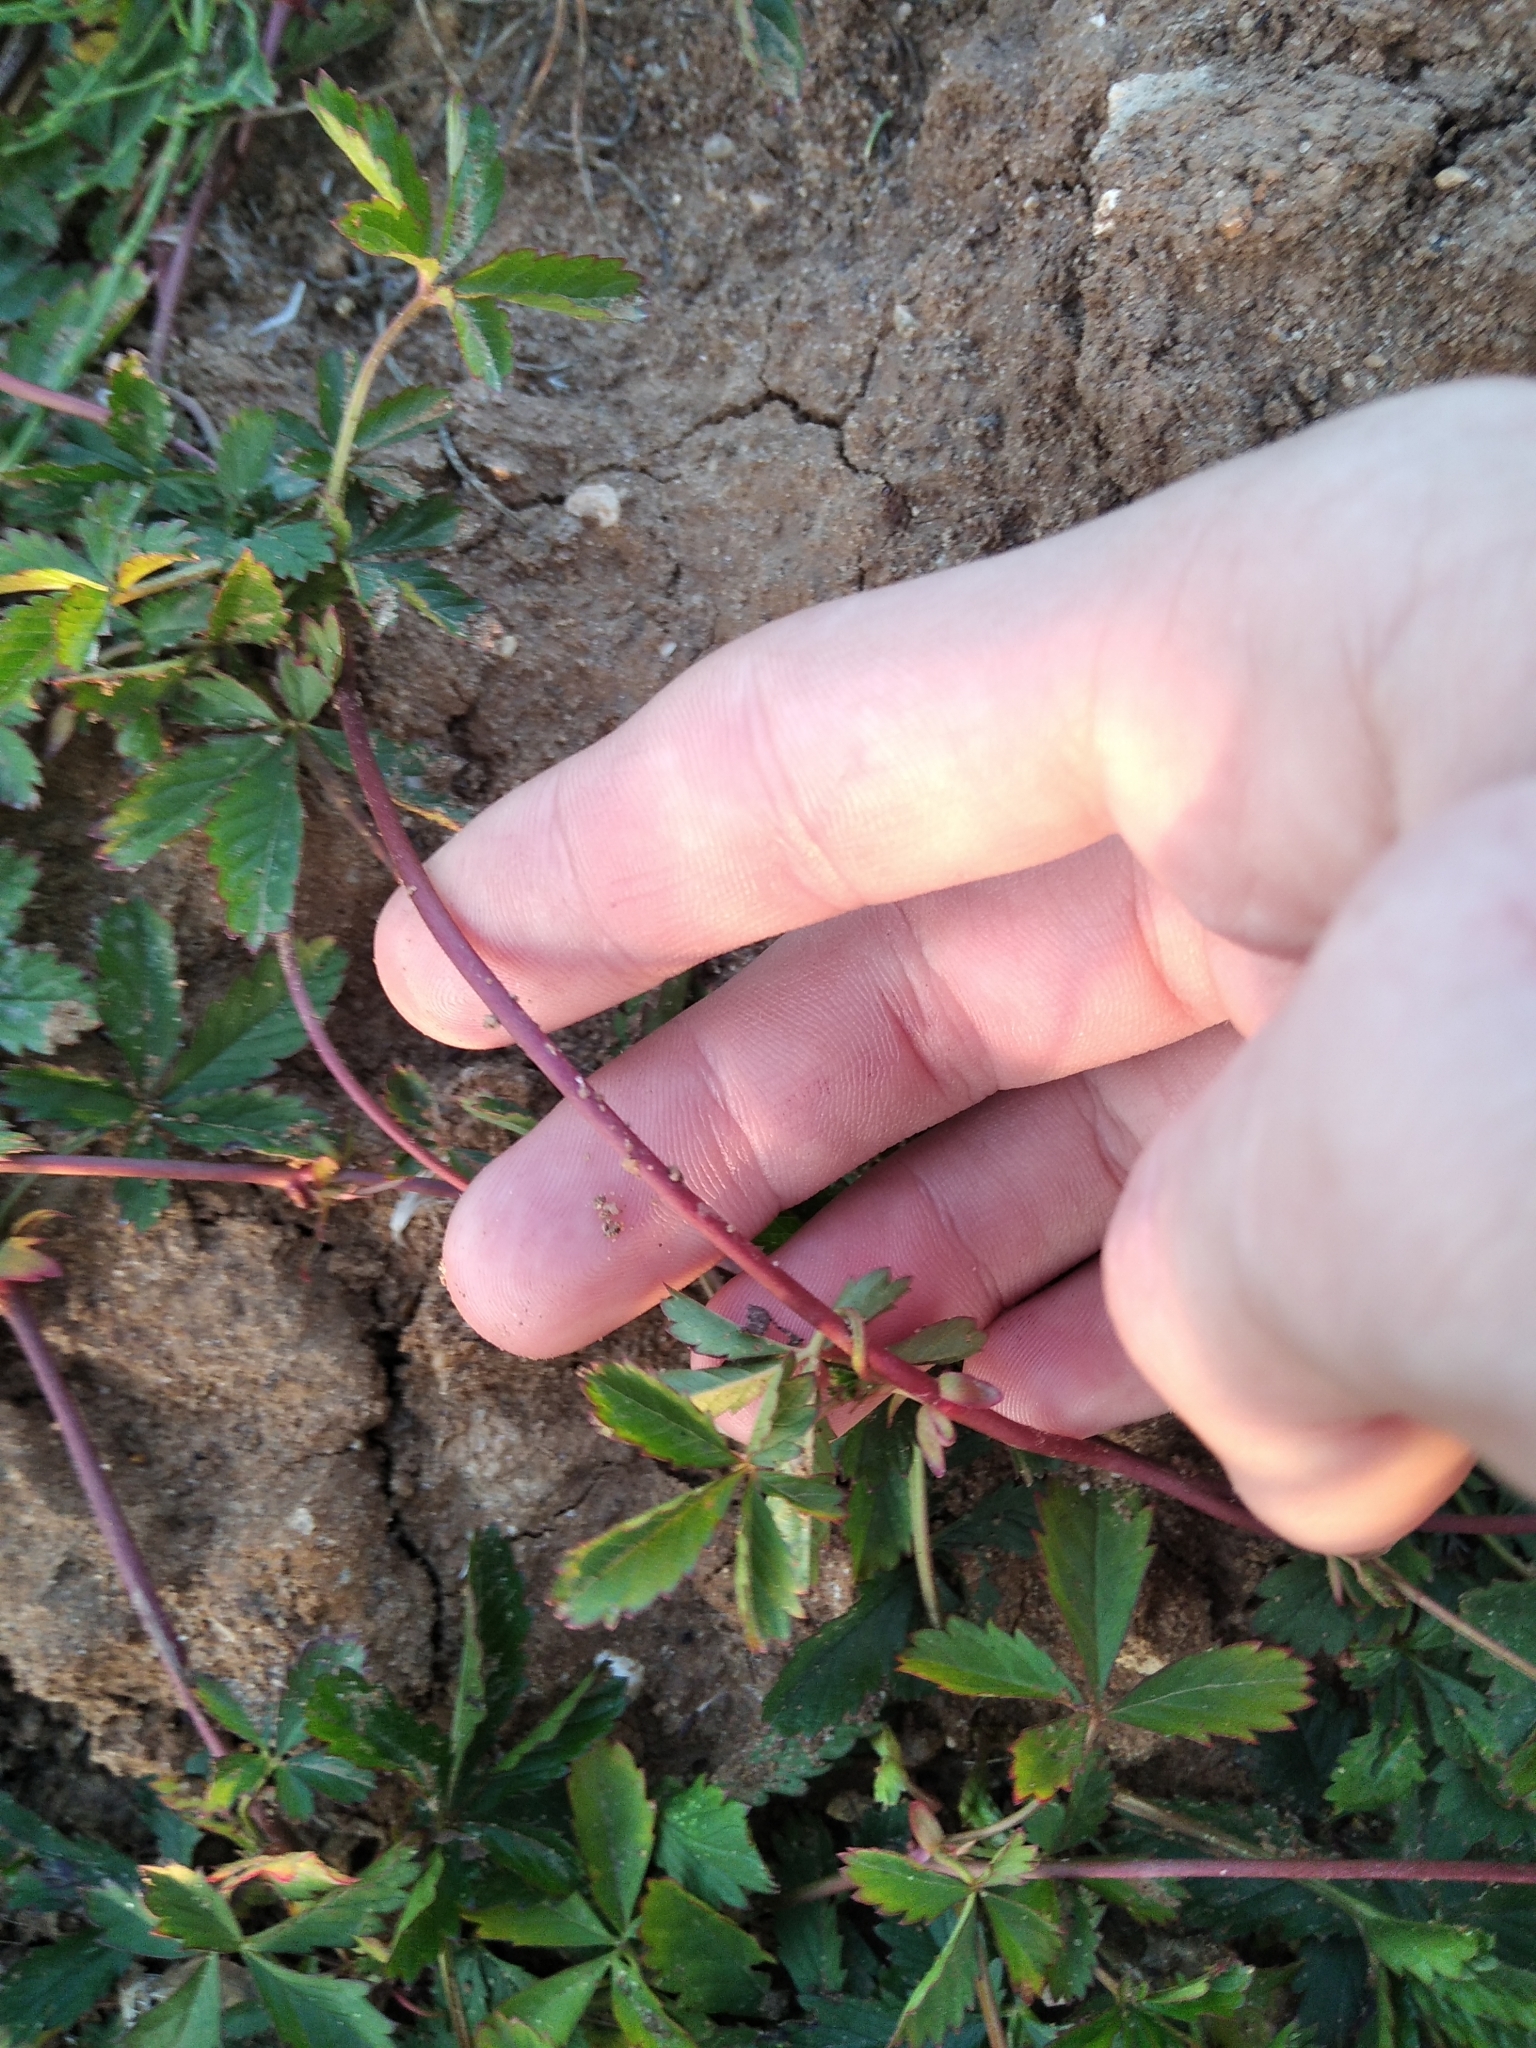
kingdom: Plantae
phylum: Tracheophyta
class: Magnoliopsida
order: Rosales
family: Rosaceae
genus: Potentilla
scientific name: Potentilla reptans
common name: Creeping cinquefoil
